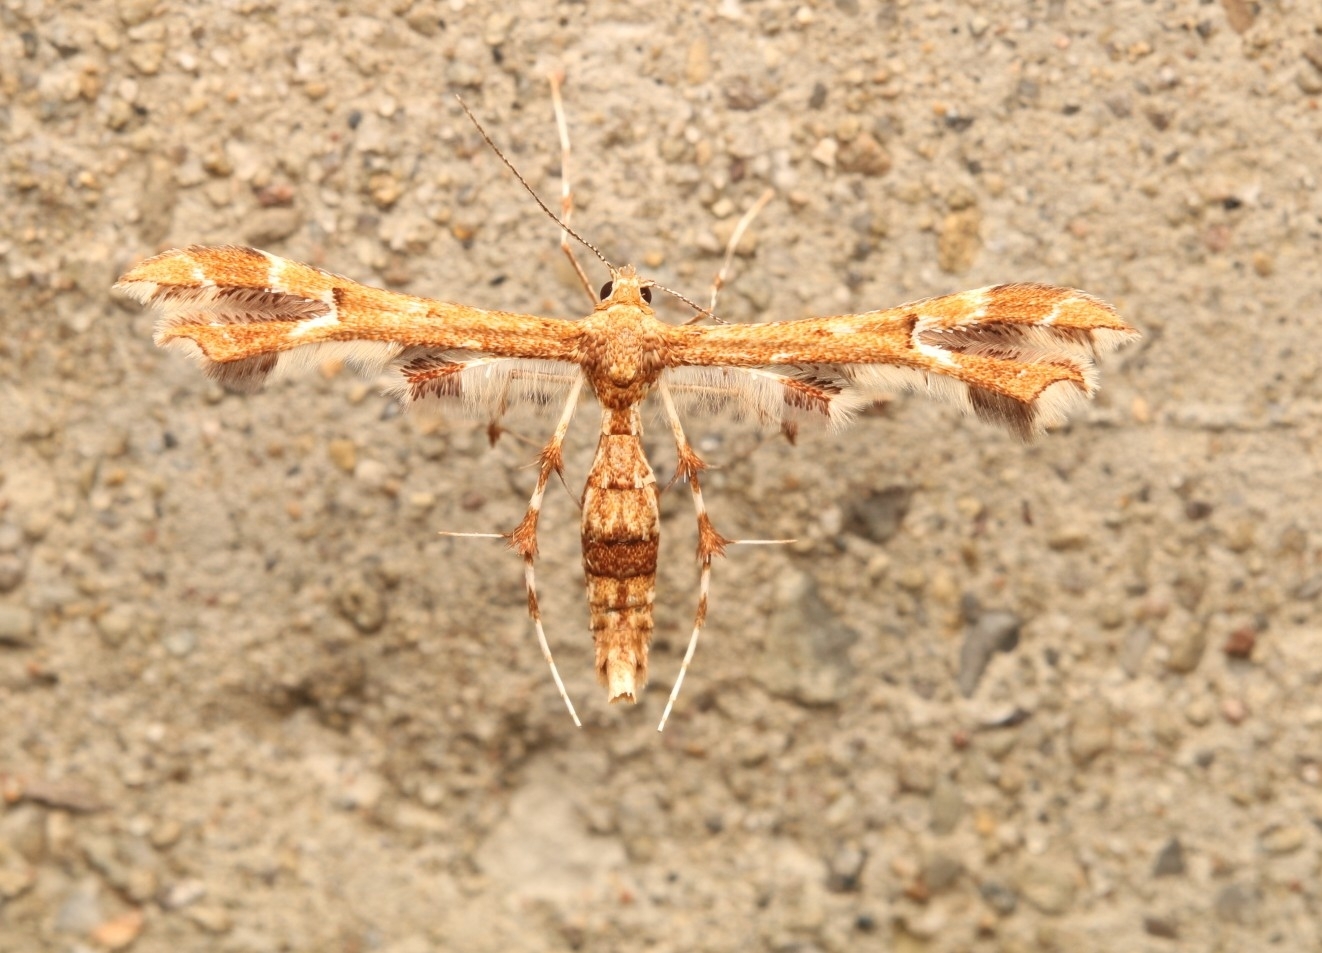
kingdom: Animalia
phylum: Arthropoda
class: Insecta
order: Lepidoptera
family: Pterophoridae
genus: Geina
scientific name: Geina
